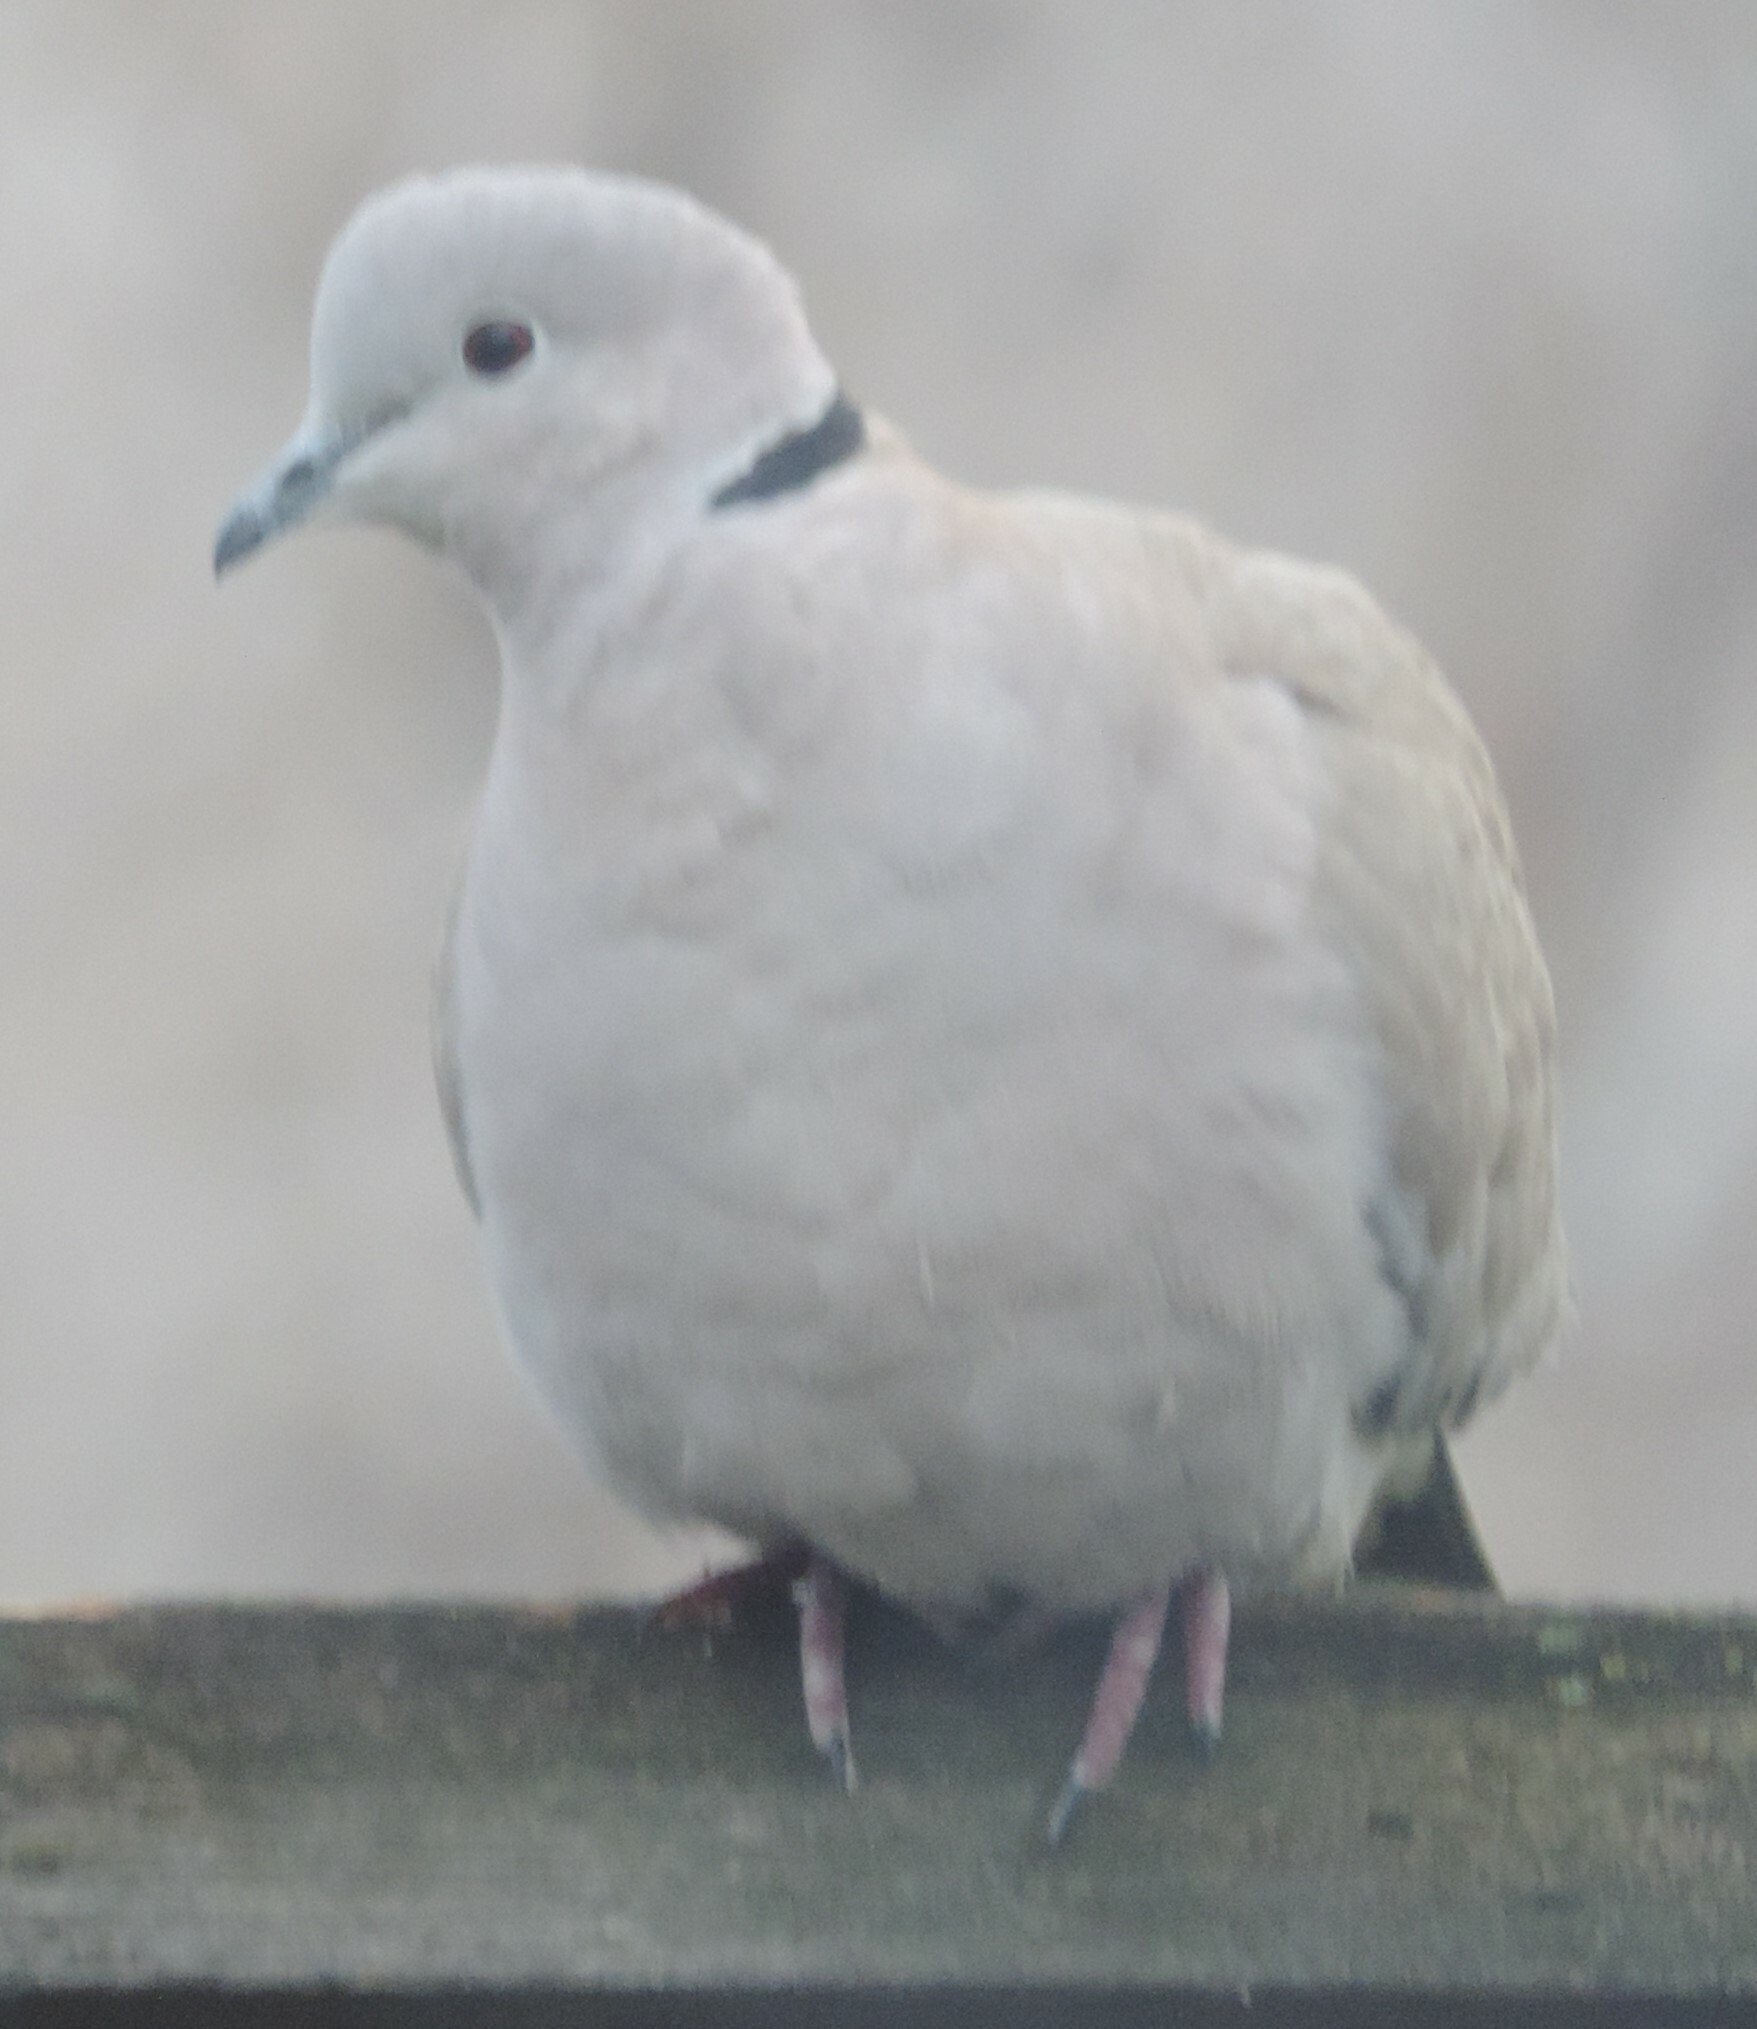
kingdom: Animalia
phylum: Chordata
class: Aves
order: Columbiformes
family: Columbidae
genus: Streptopelia
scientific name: Streptopelia decaocto
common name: Eurasian collared dove
